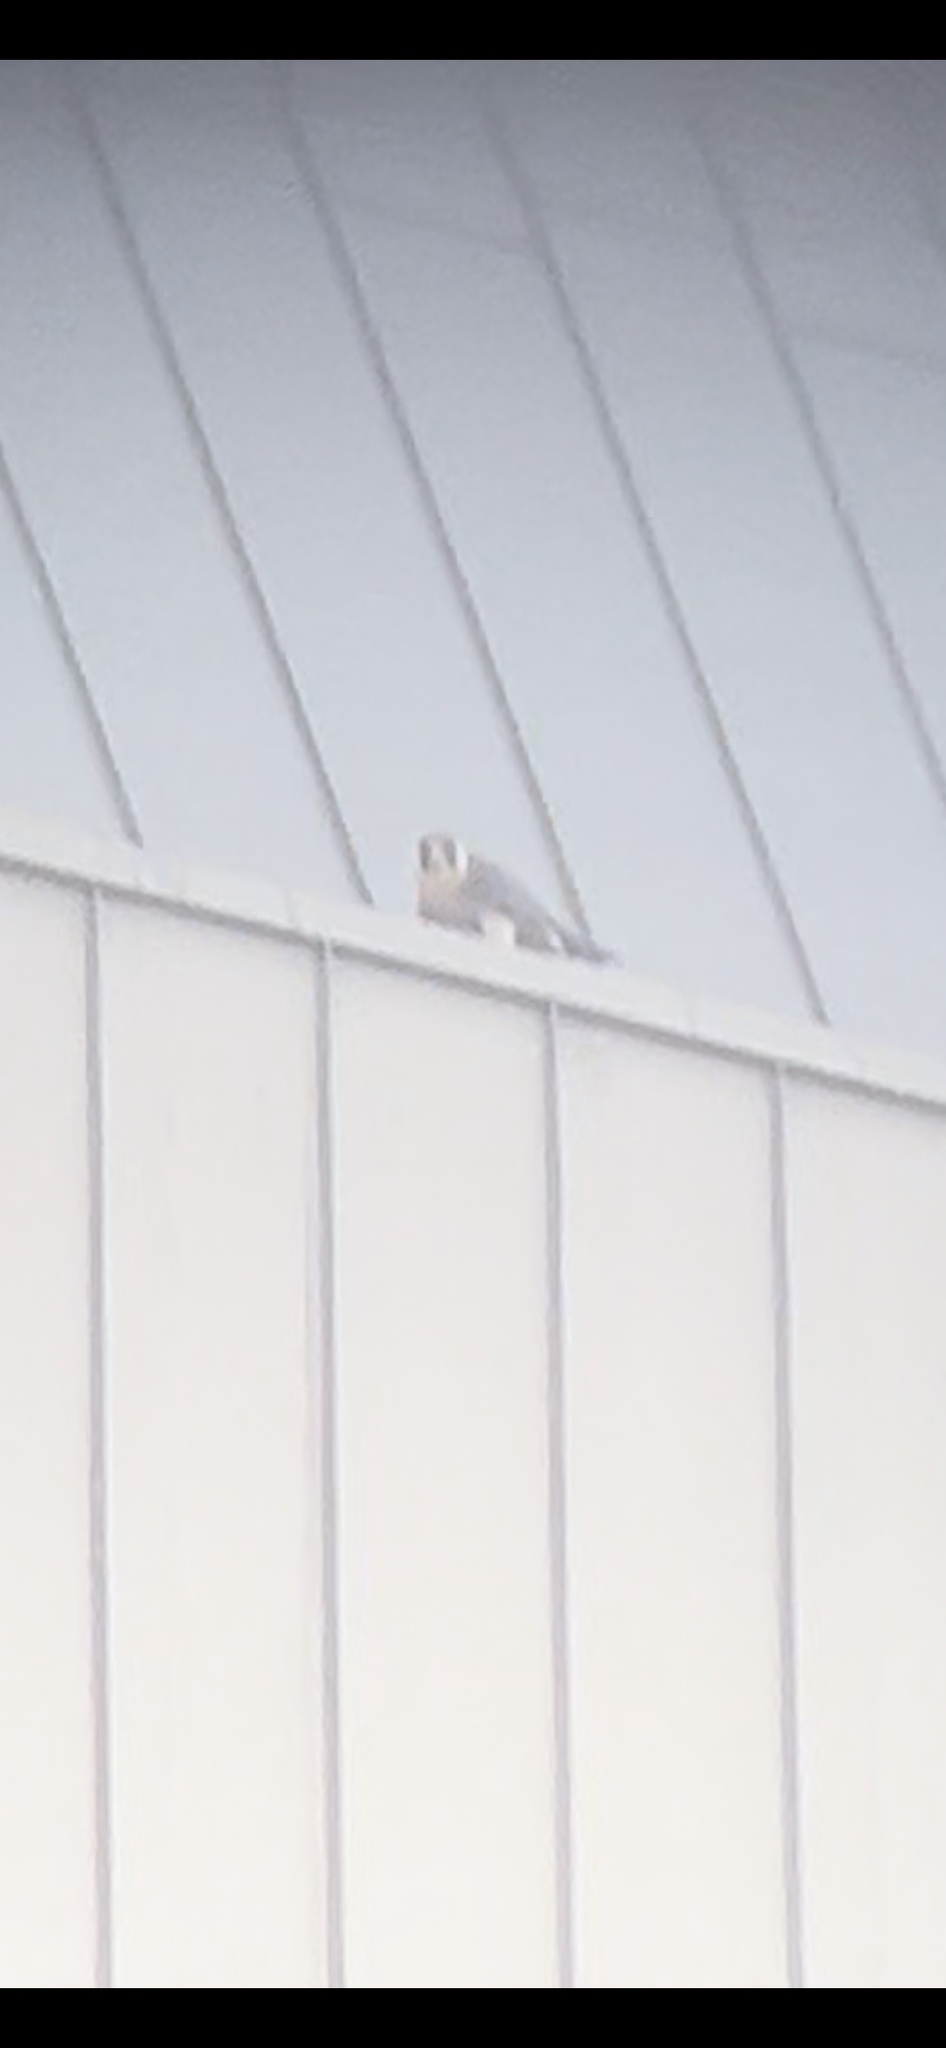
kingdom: Animalia
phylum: Chordata
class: Aves
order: Falconiformes
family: Falconidae
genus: Falco
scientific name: Falco peregrinus
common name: Peregrine falcon
